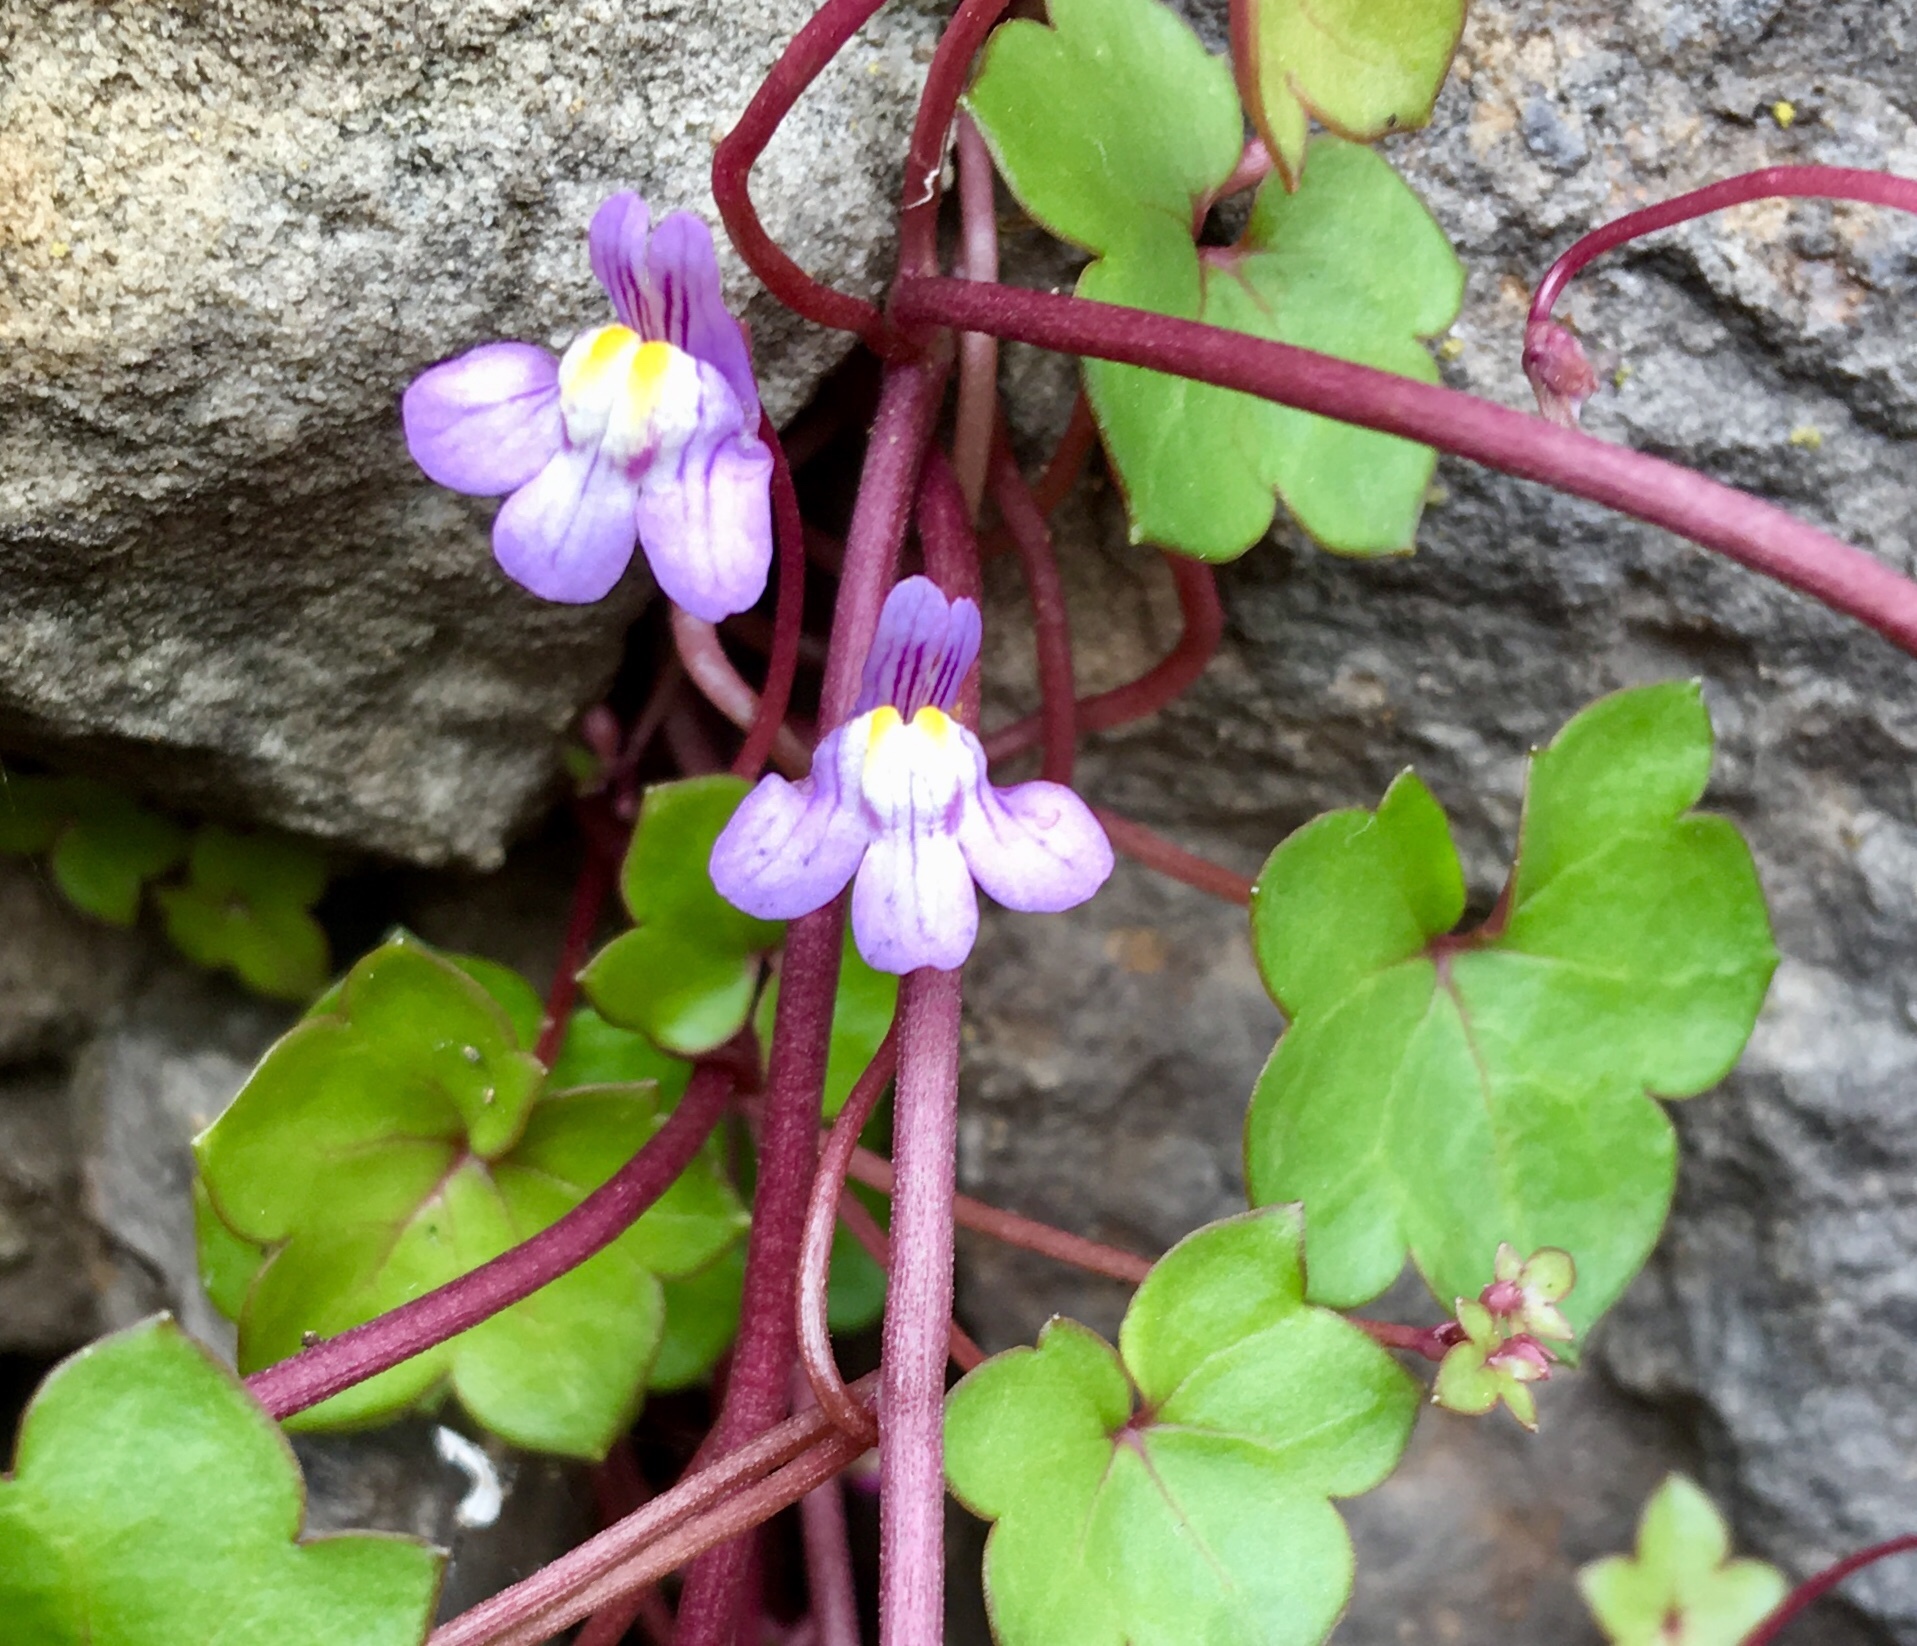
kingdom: Plantae
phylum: Tracheophyta
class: Magnoliopsida
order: Lamiales
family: Plantaginaceae
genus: Cymbalaria
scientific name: Cymbalaria muralis
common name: Ivy-leaved toadflax
